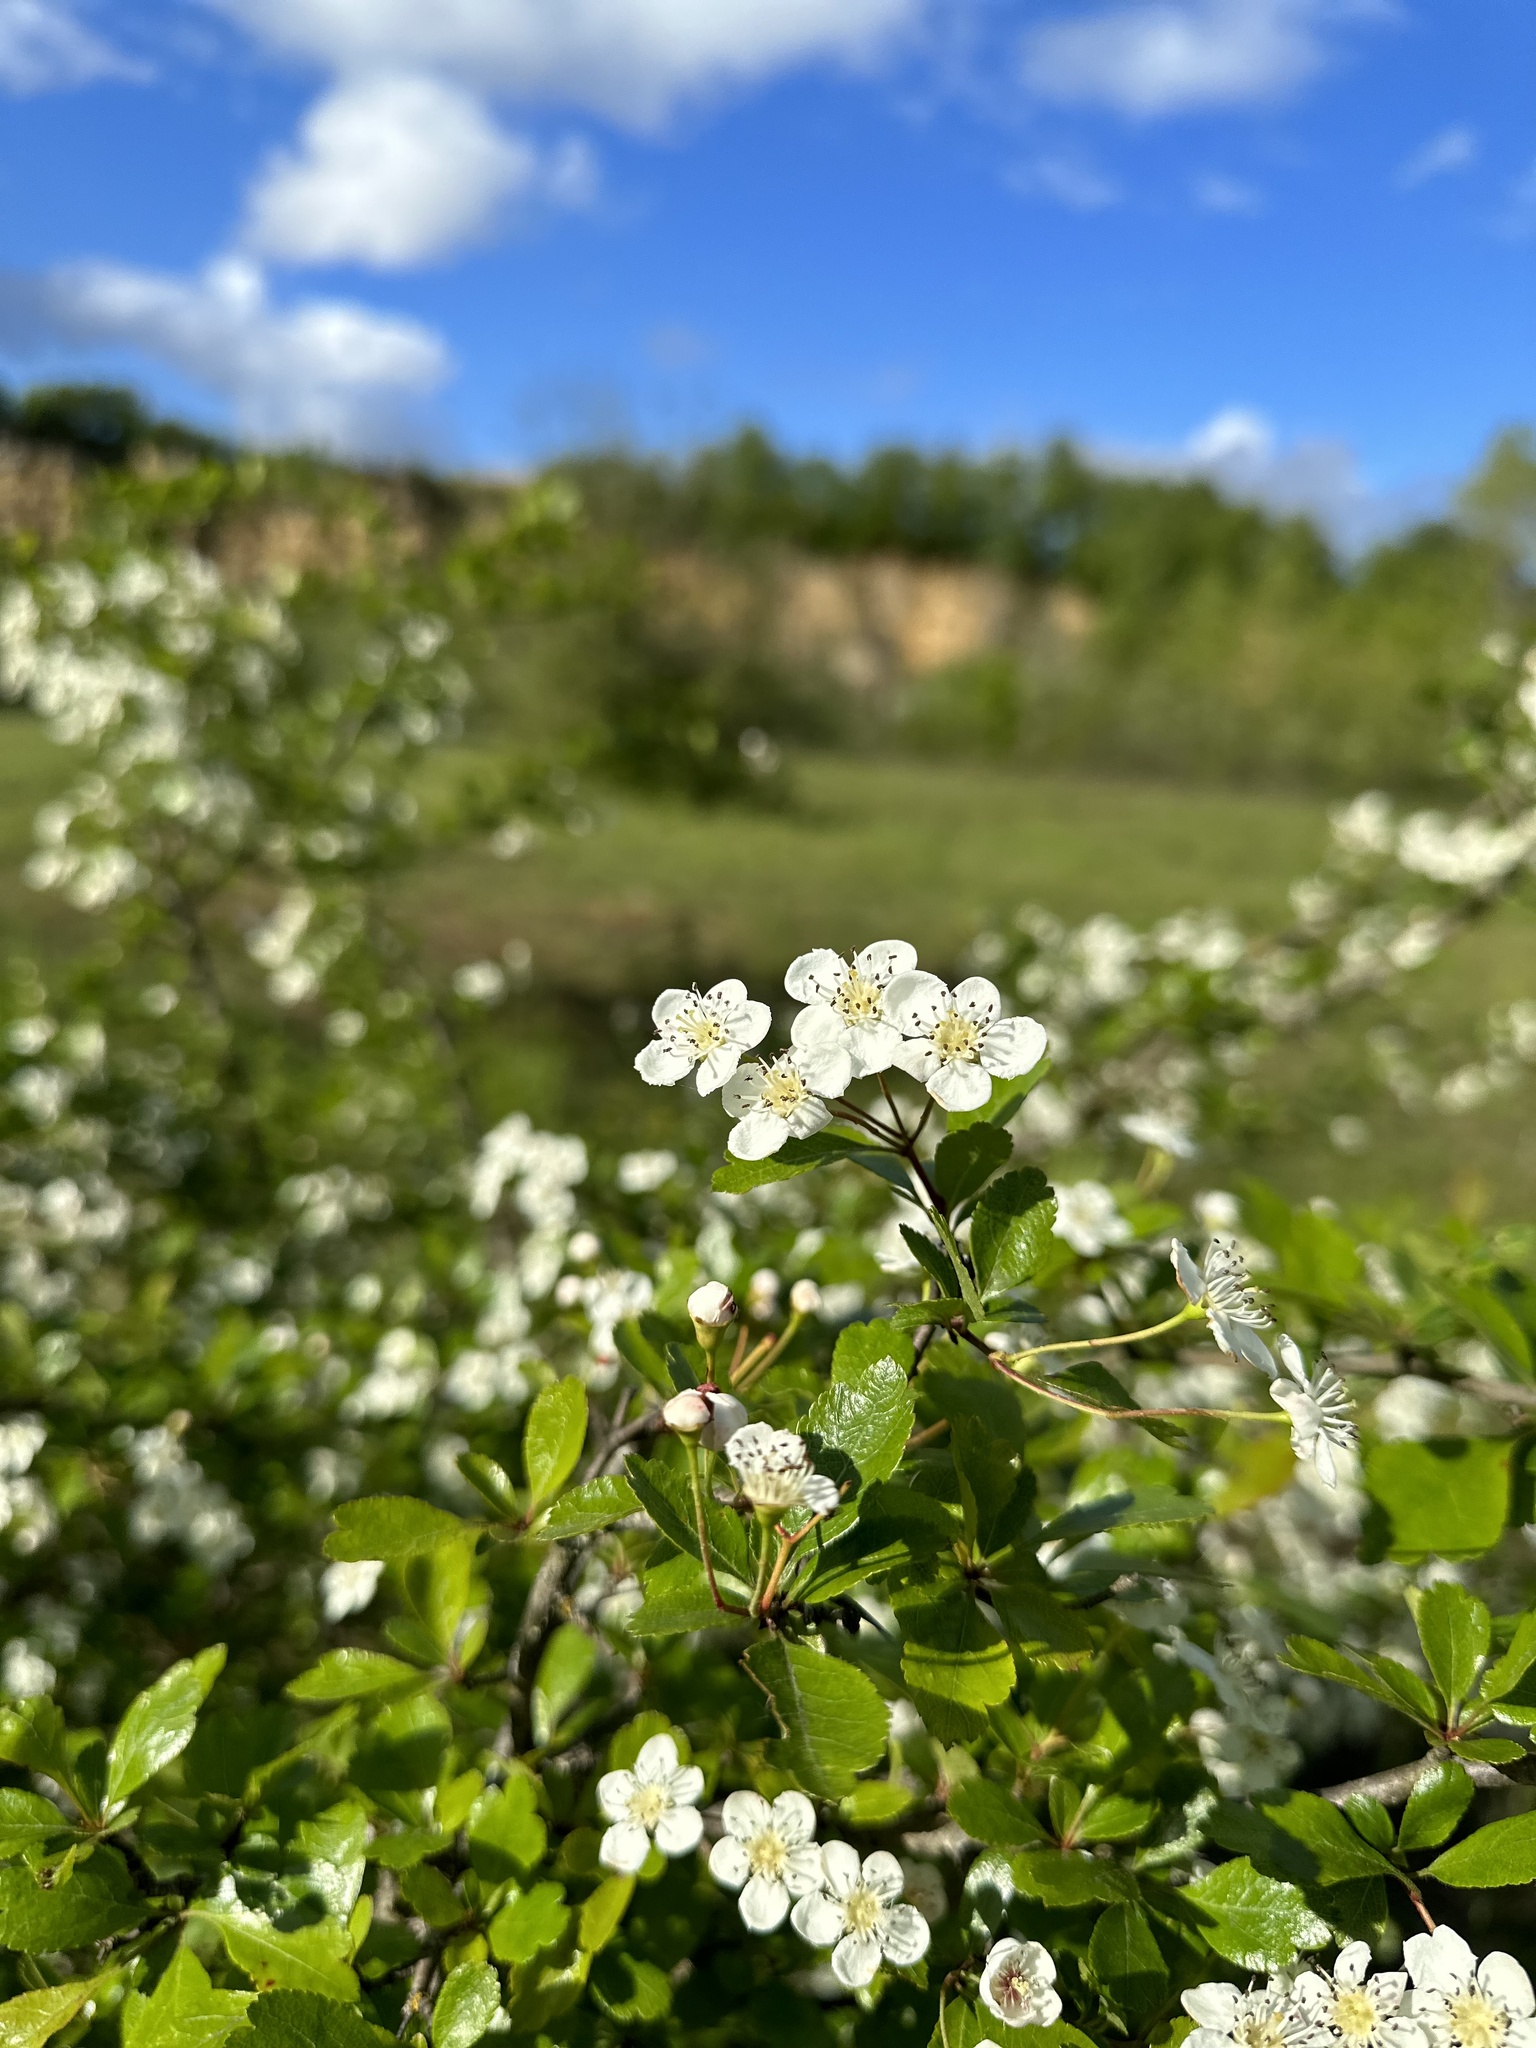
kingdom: Plantae
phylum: Tracheophyta
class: Magnoliopsida
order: Rosales
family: Rosaceae
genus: Crataegus
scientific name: Crataegus laevigata
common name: Midland hawthorn
